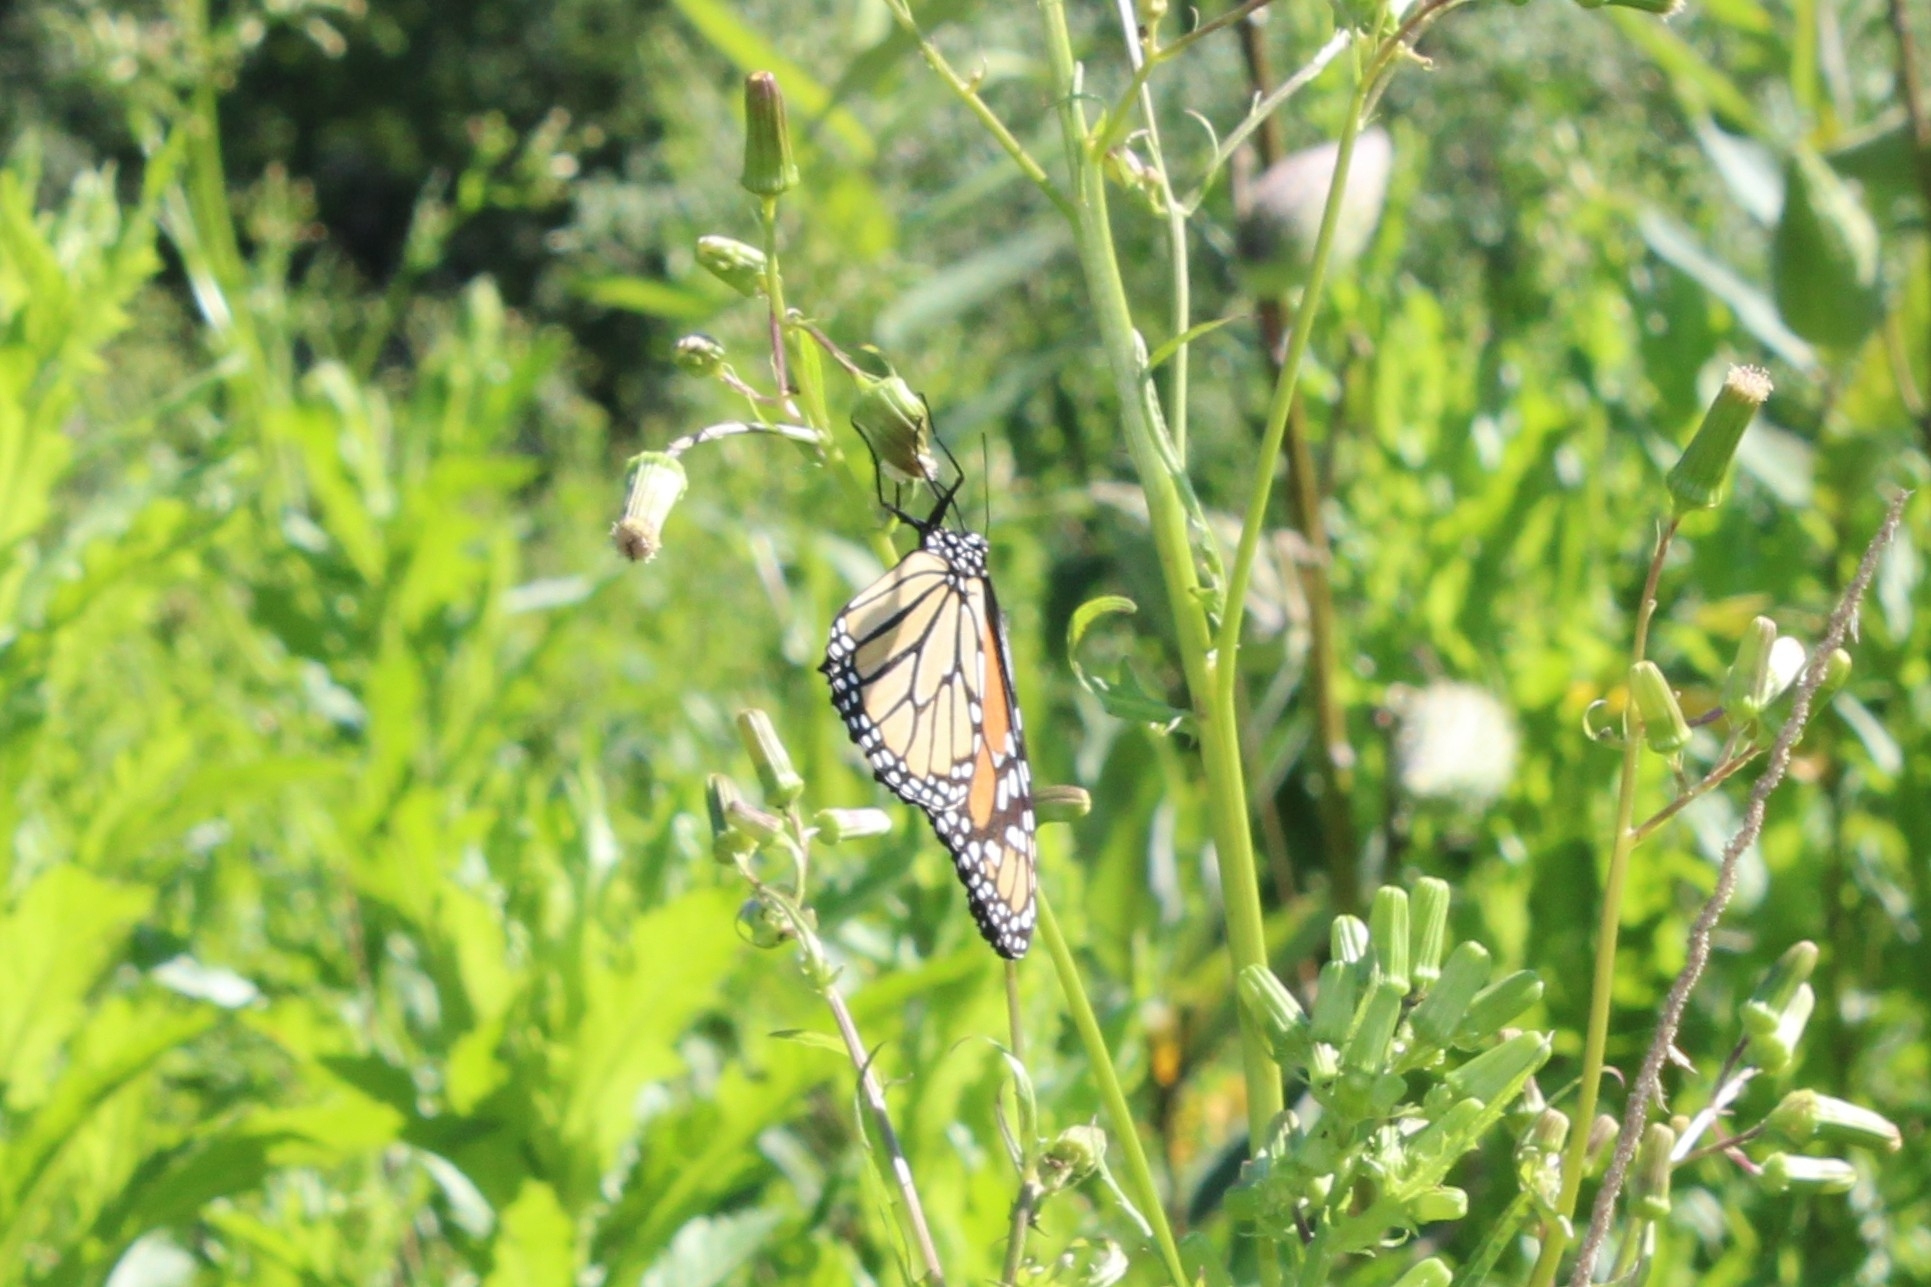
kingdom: Animalia
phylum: Arthropoda
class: Insecta
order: Lepidoptera
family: Nymphalidae
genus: Danaus
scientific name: Danaus plexippus
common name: Monarch
